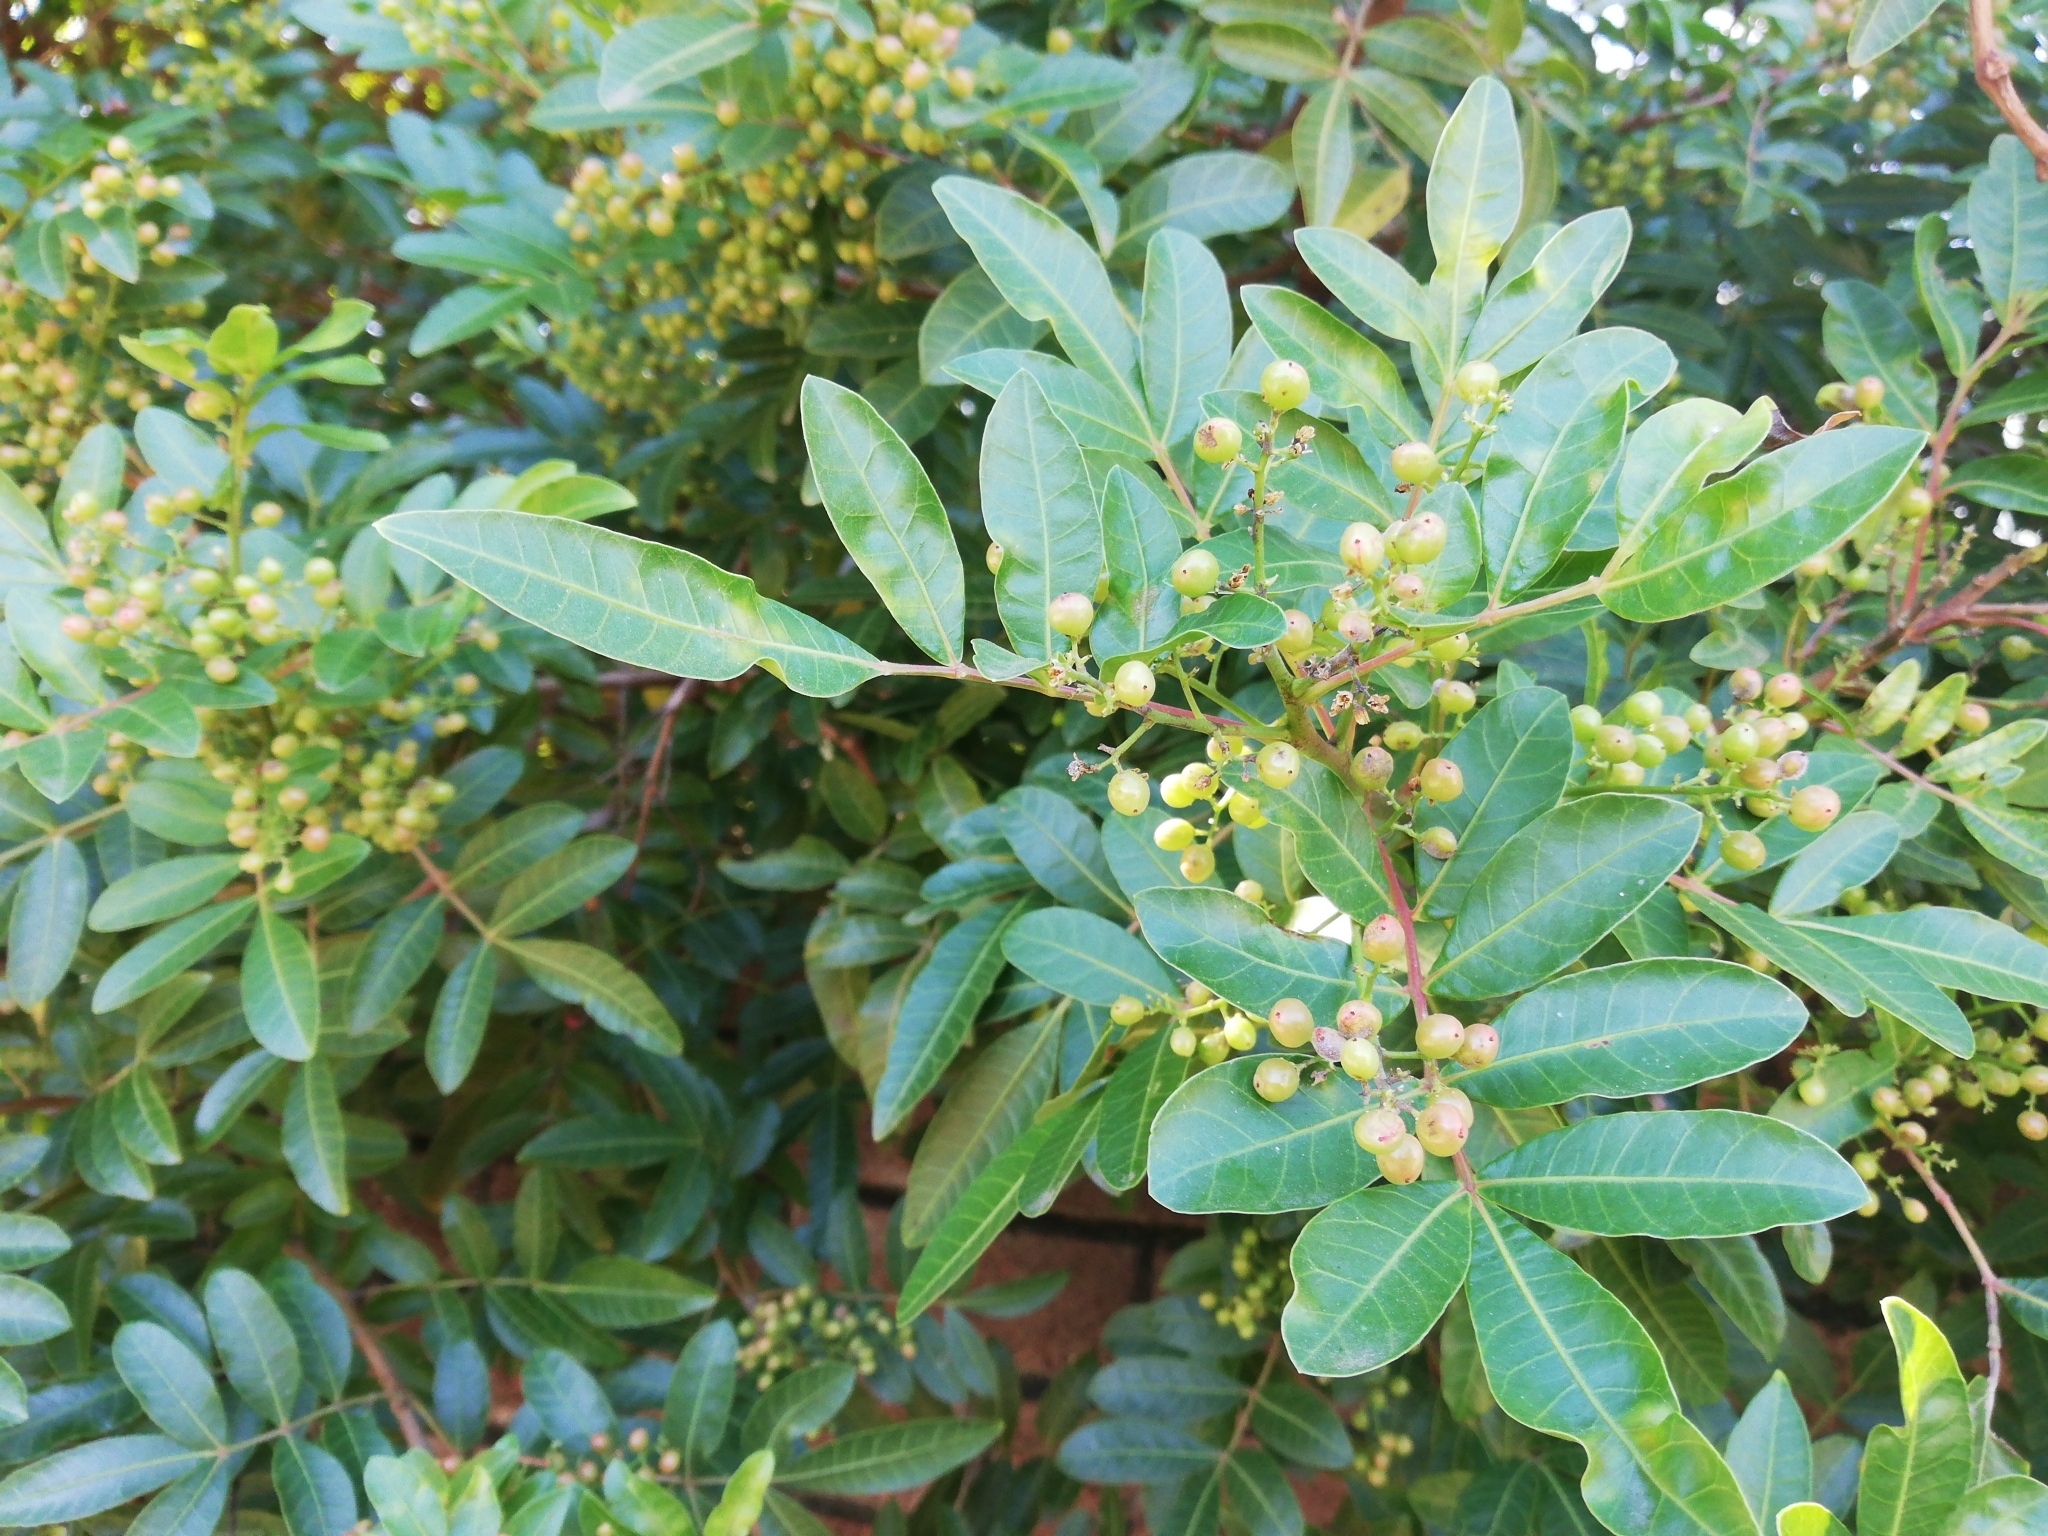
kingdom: Plantae
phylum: Tracheophyta
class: Magnoliopsida
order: Sapindales
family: Anacardiaceae
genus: Schinus
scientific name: Schinus terebinthifolia
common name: Brazilian peppertree
